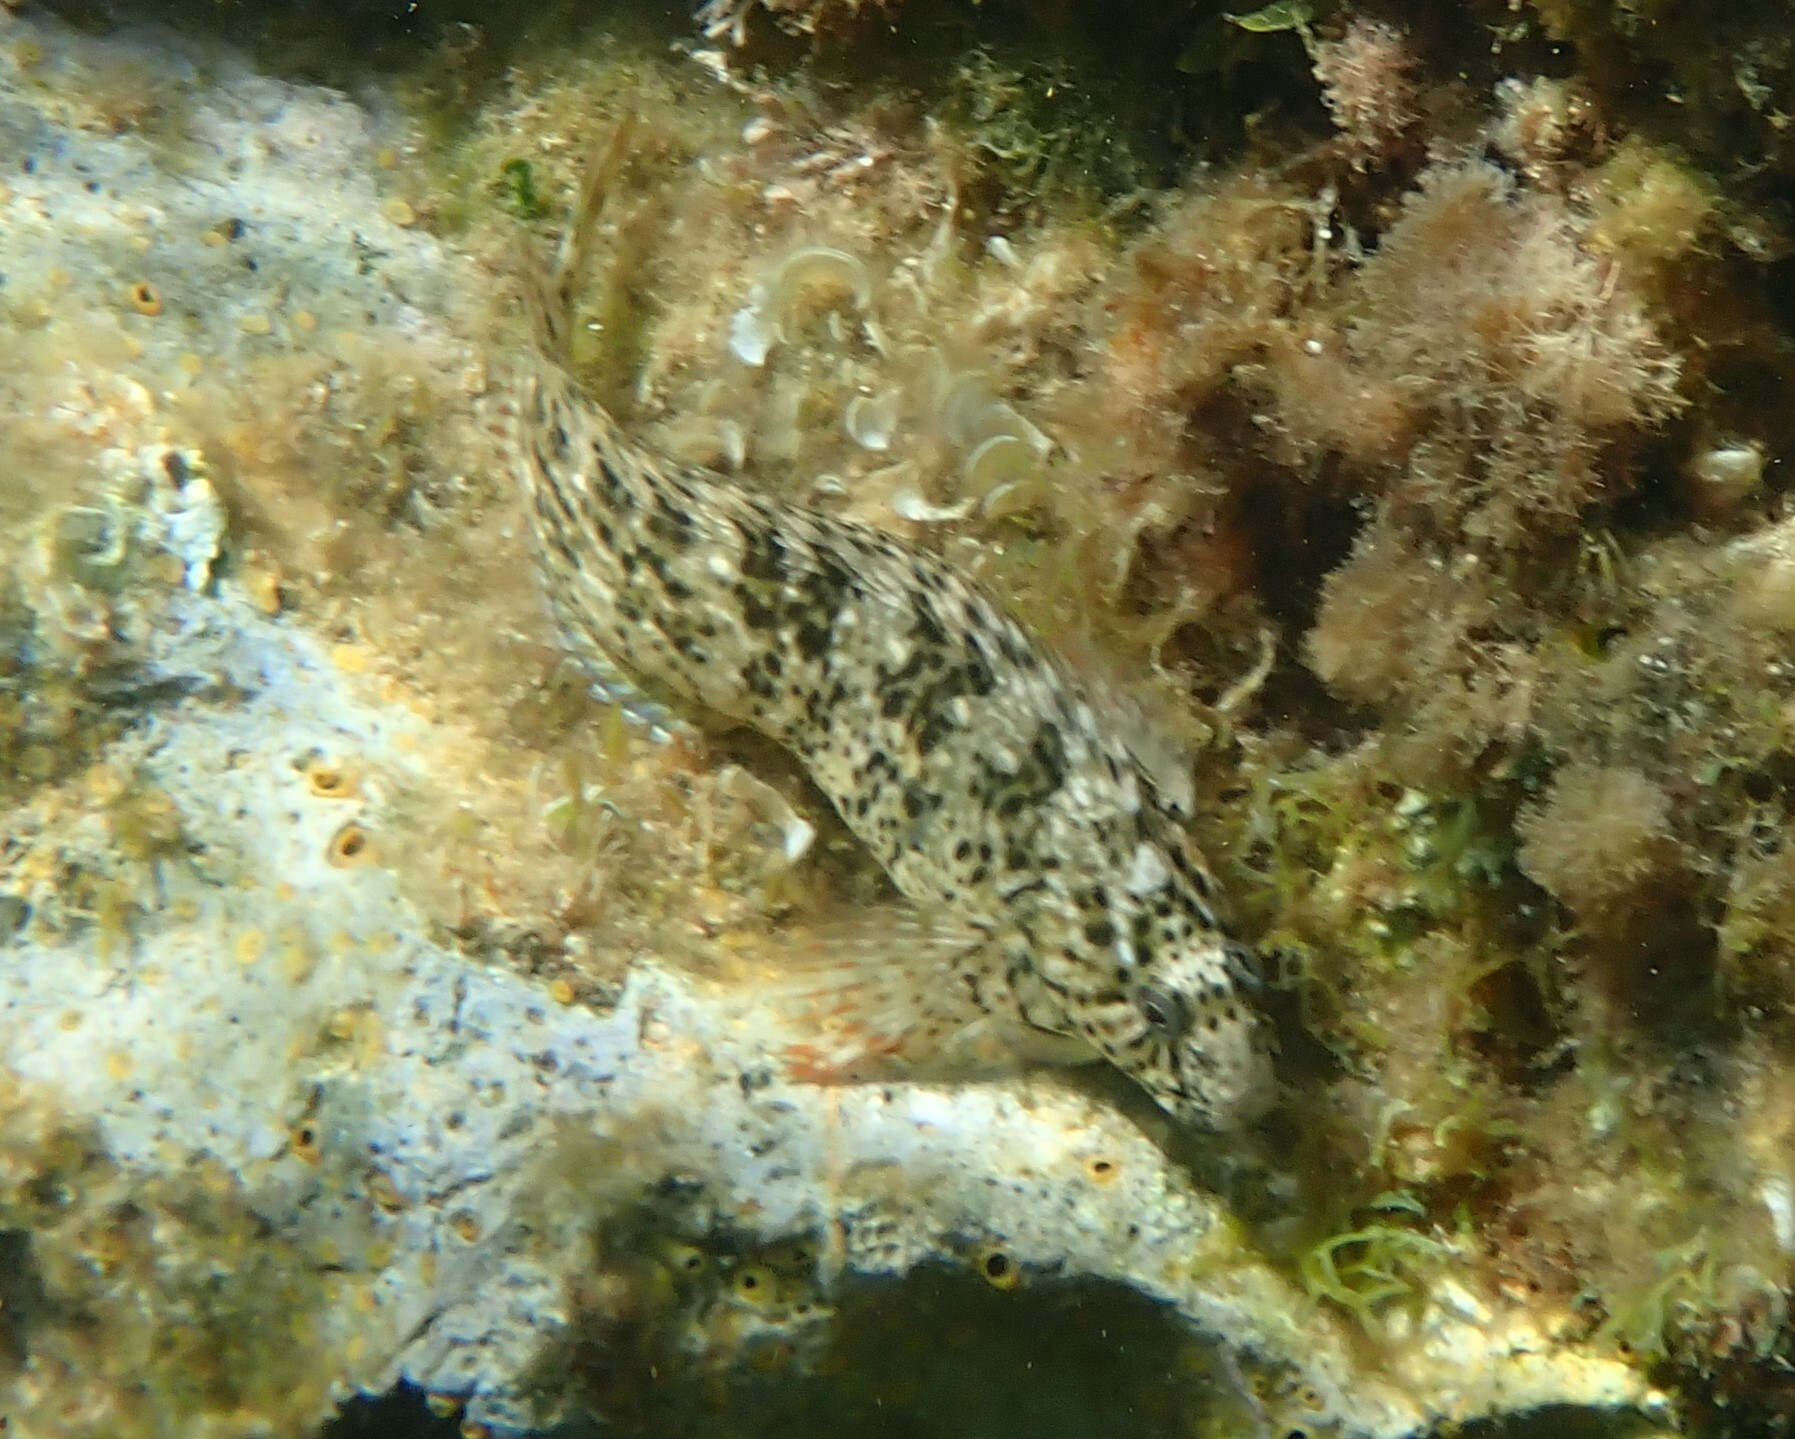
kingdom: Animalia
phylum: Chordata
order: Perciformes
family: Blenniidae
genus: Parablennius
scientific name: Parablennius sanguinolentus
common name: Black sea blenny
